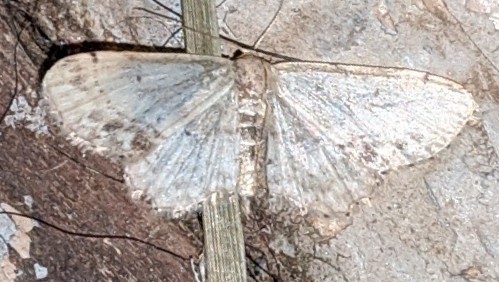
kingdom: Animalia
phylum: Arthropoda
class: Insecta
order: Lepidoptera
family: Geometridae
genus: Idaea
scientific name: Idaea dimidiata
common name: Single-dotted wave
